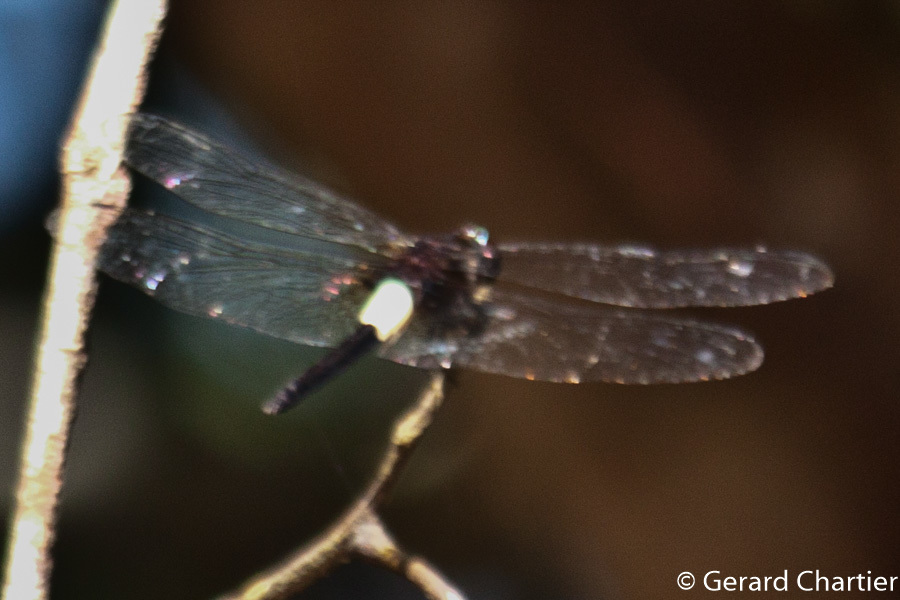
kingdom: Animalia
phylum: Arthropoda
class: Insecta
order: Odonata
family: Libellulidae
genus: Pseudothemis
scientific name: Pseudothemis jorina
